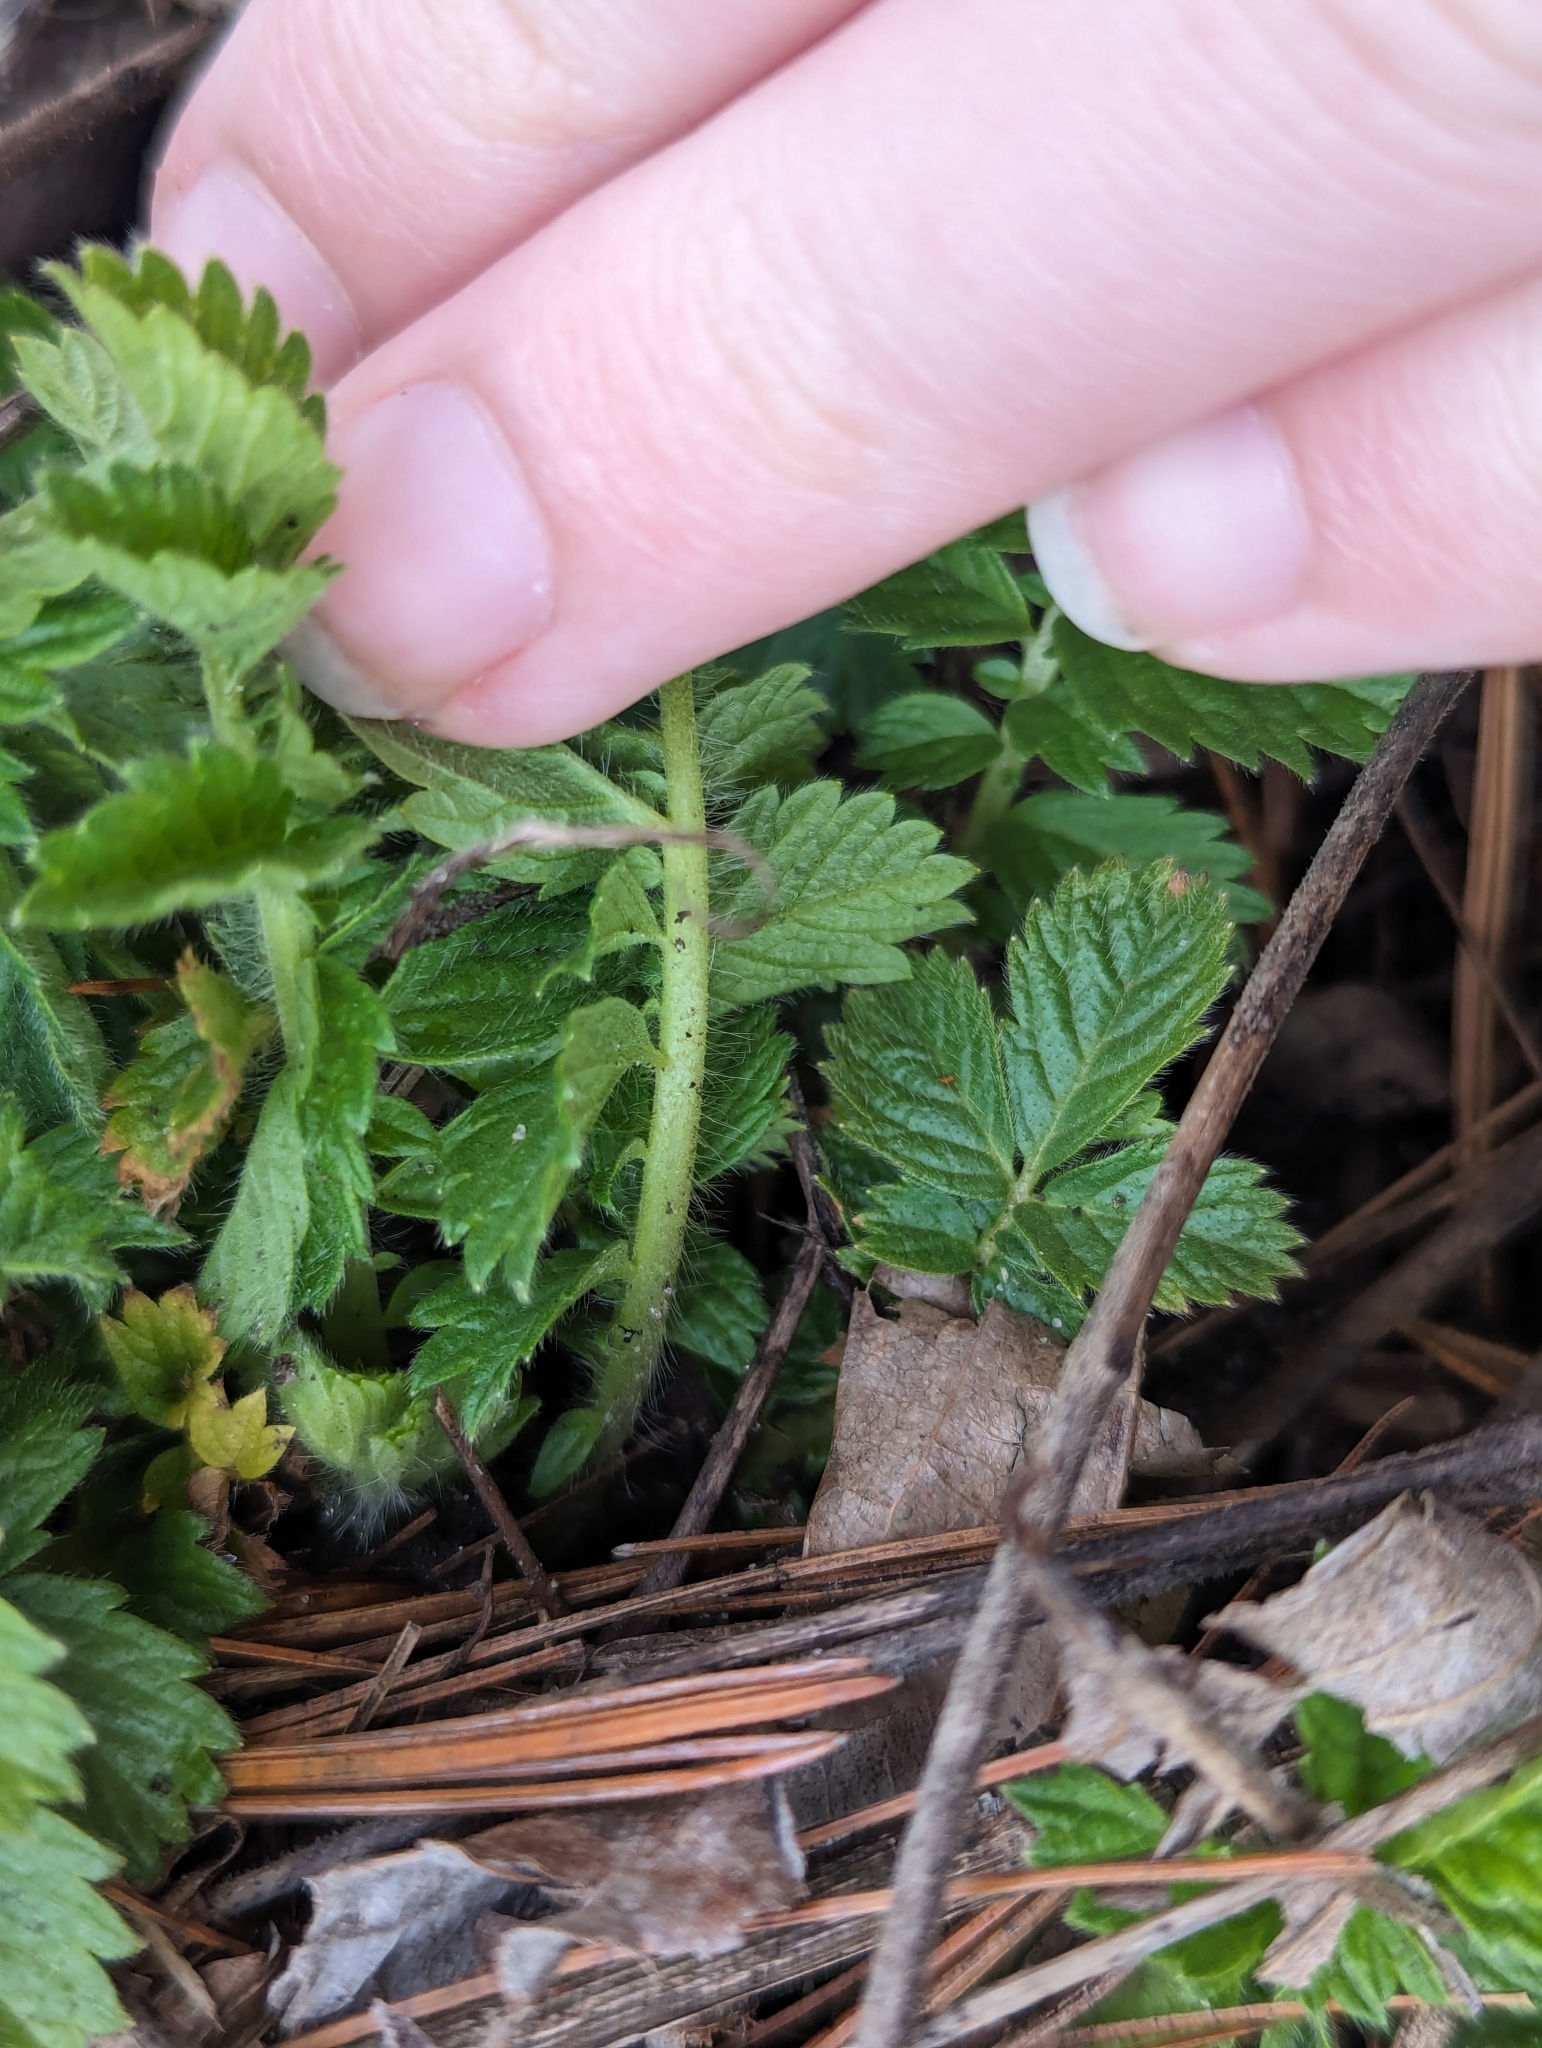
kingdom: Plantae
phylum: Tracheophyta
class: Magnoliopsida
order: Rosales
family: Rosaceae
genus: Agrimonia
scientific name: Agrimonia gryposepala
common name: Common agrimony
